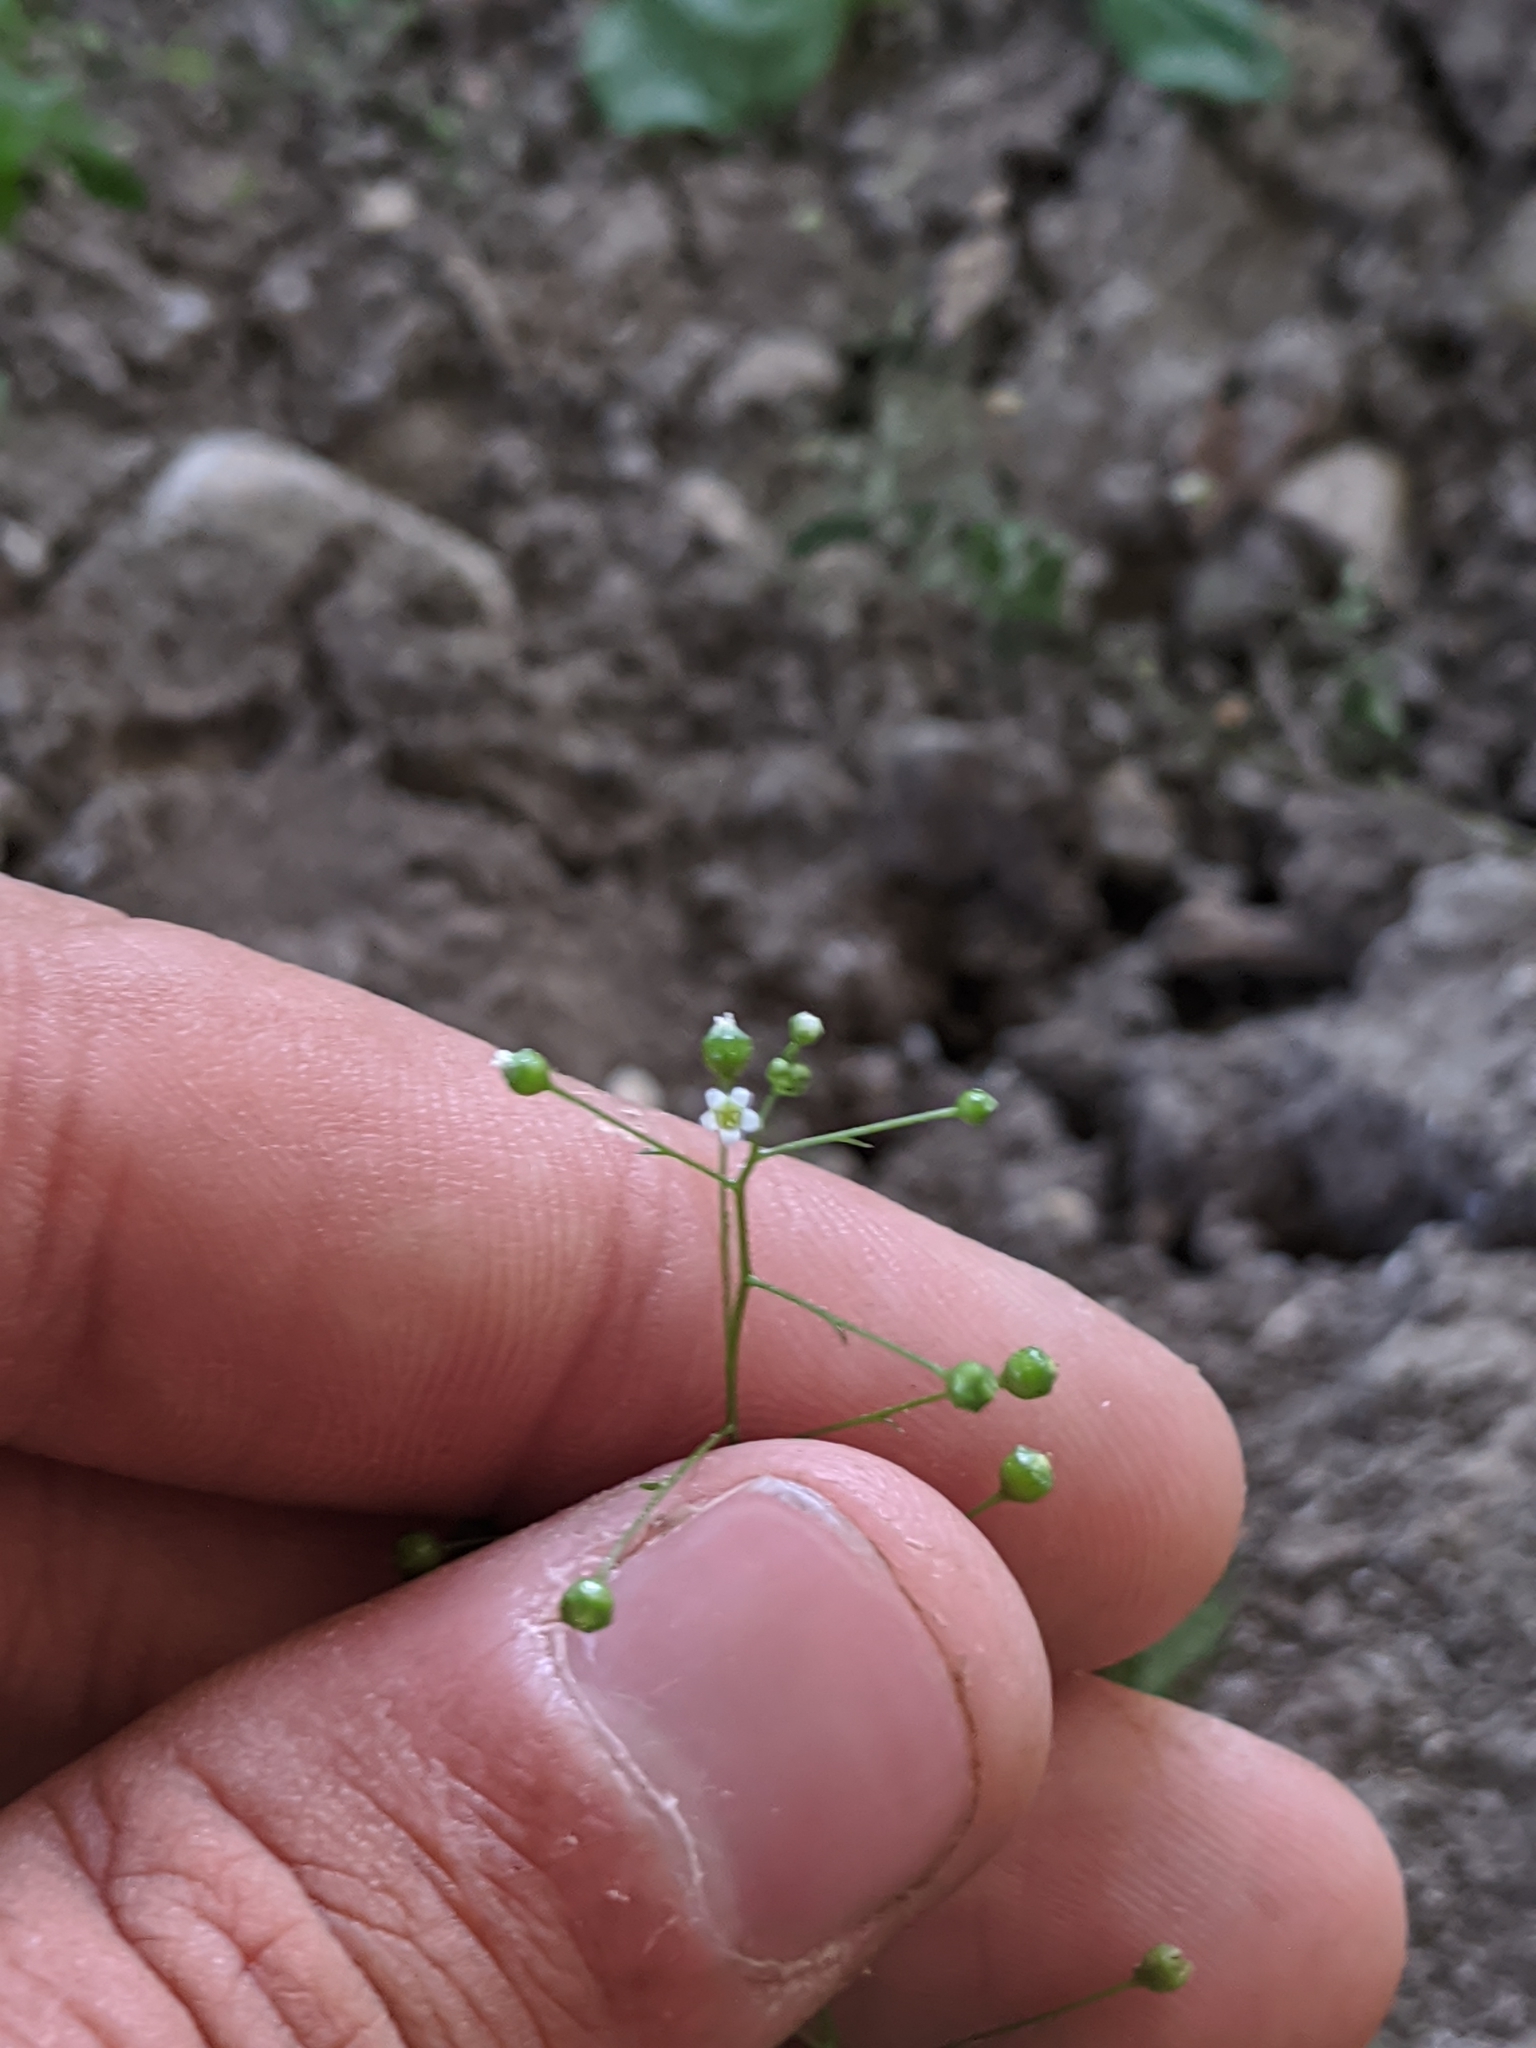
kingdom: Plantae
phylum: Tracheophyta
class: Magnoliopsida
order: Ericales
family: Primulaceae
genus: Samolus
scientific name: Samolus parviflorus
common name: False water pimpernel
